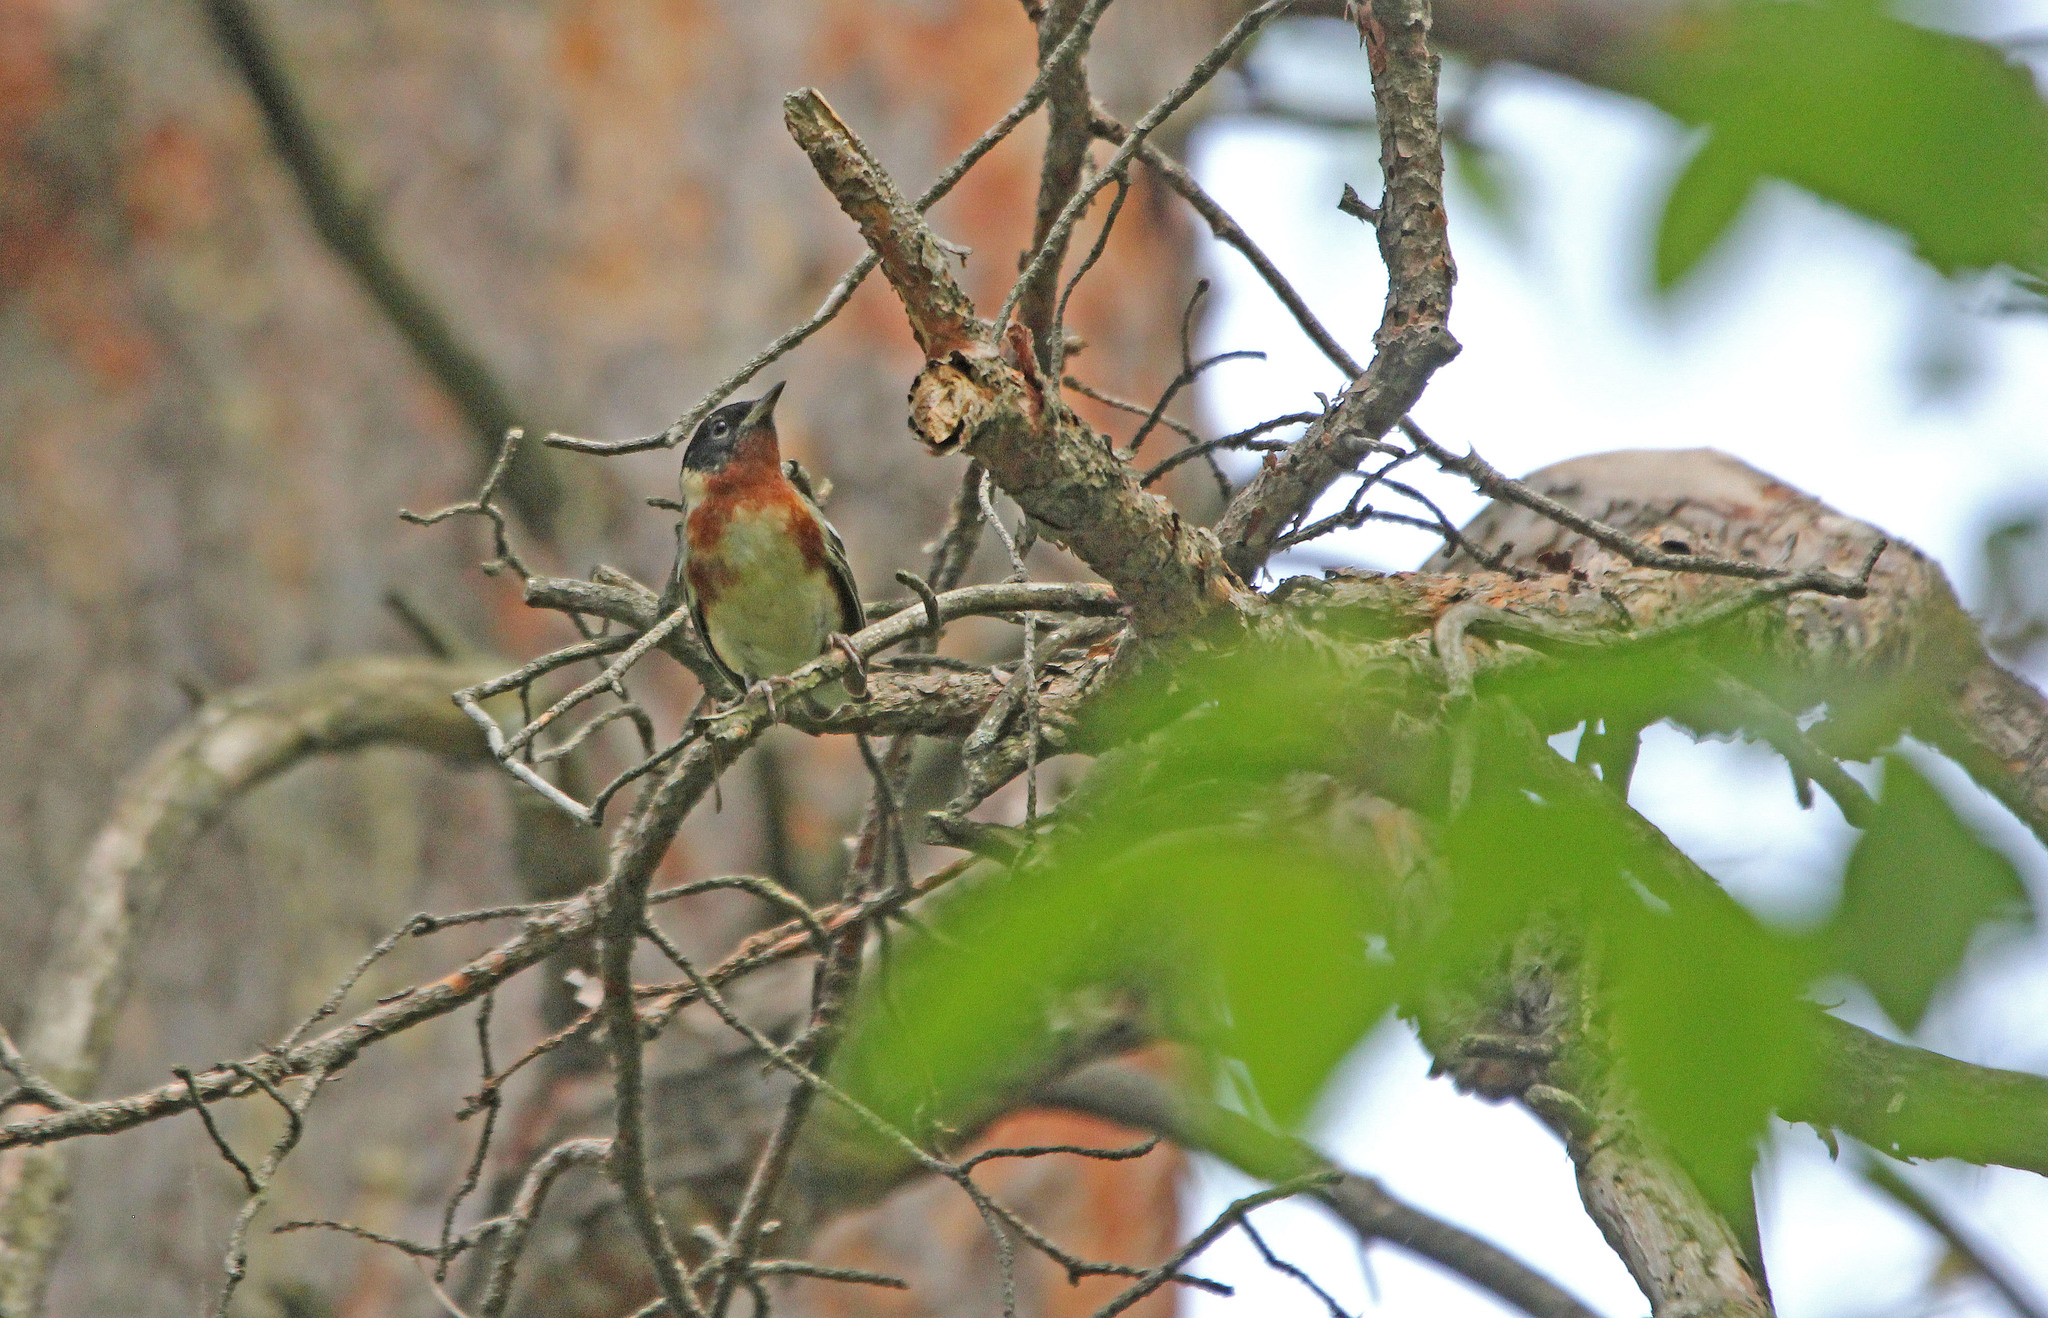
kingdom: Animalia
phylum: Chordata
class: Aves
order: Passeriformes
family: Parulidae
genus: Setophaga
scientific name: Setophaga castanea
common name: Bay-breasted warbler
